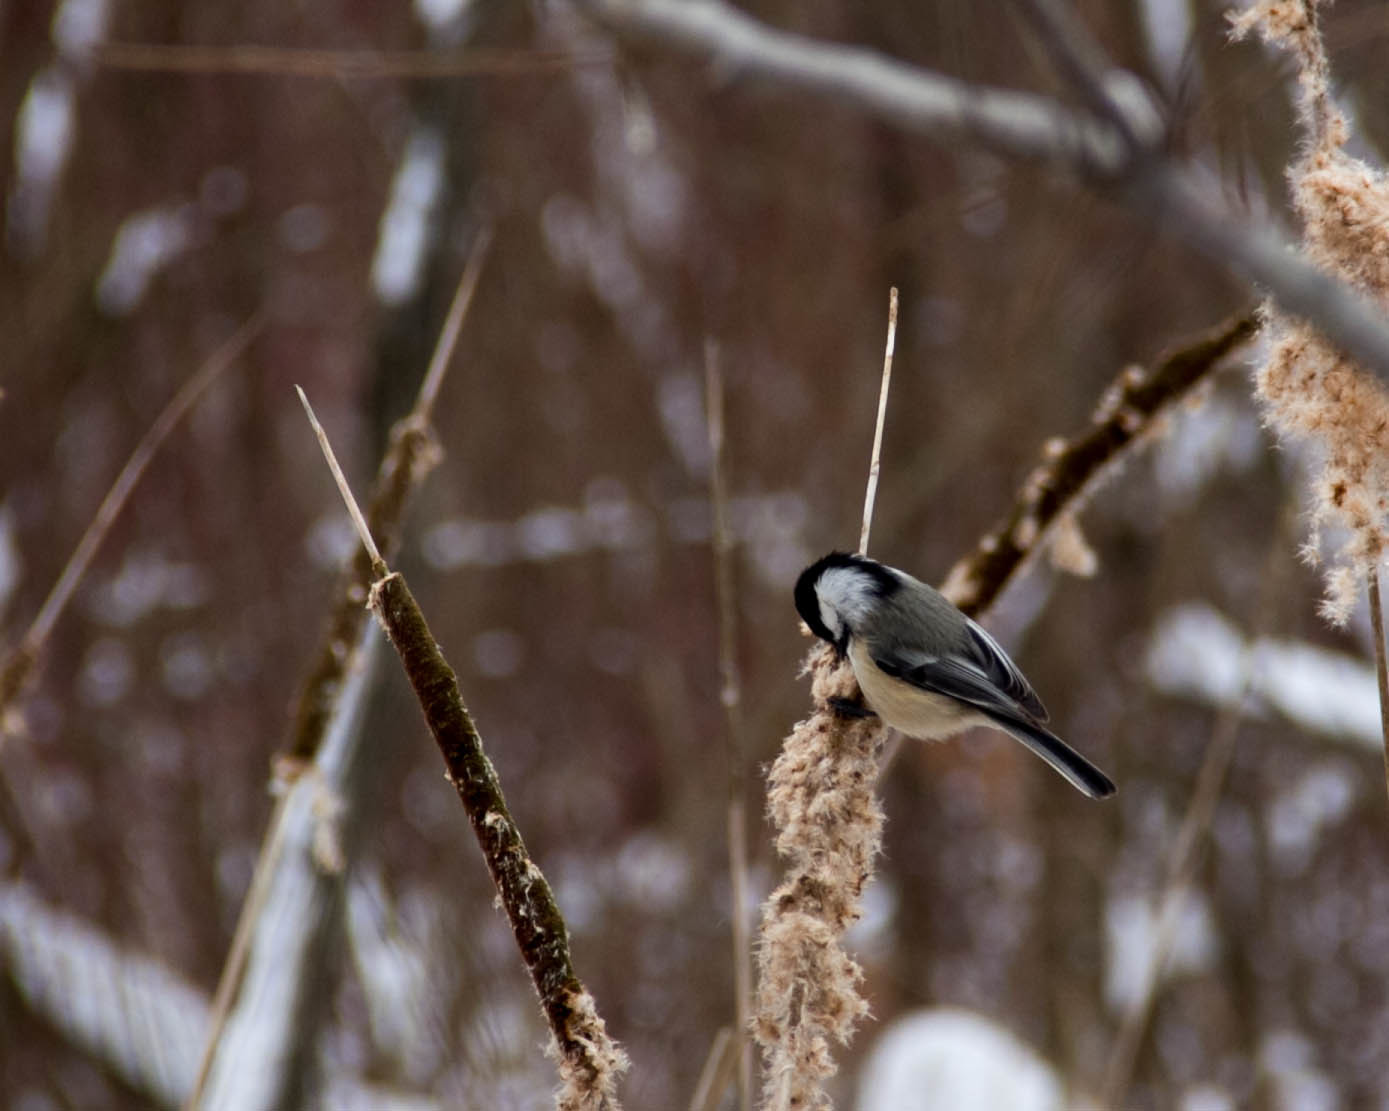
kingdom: Animalia
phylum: Chordata
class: Aves
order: Passeriformes
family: Paridae
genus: Poecile
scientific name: Poecile atricapillus
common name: Black-capped chickadee
